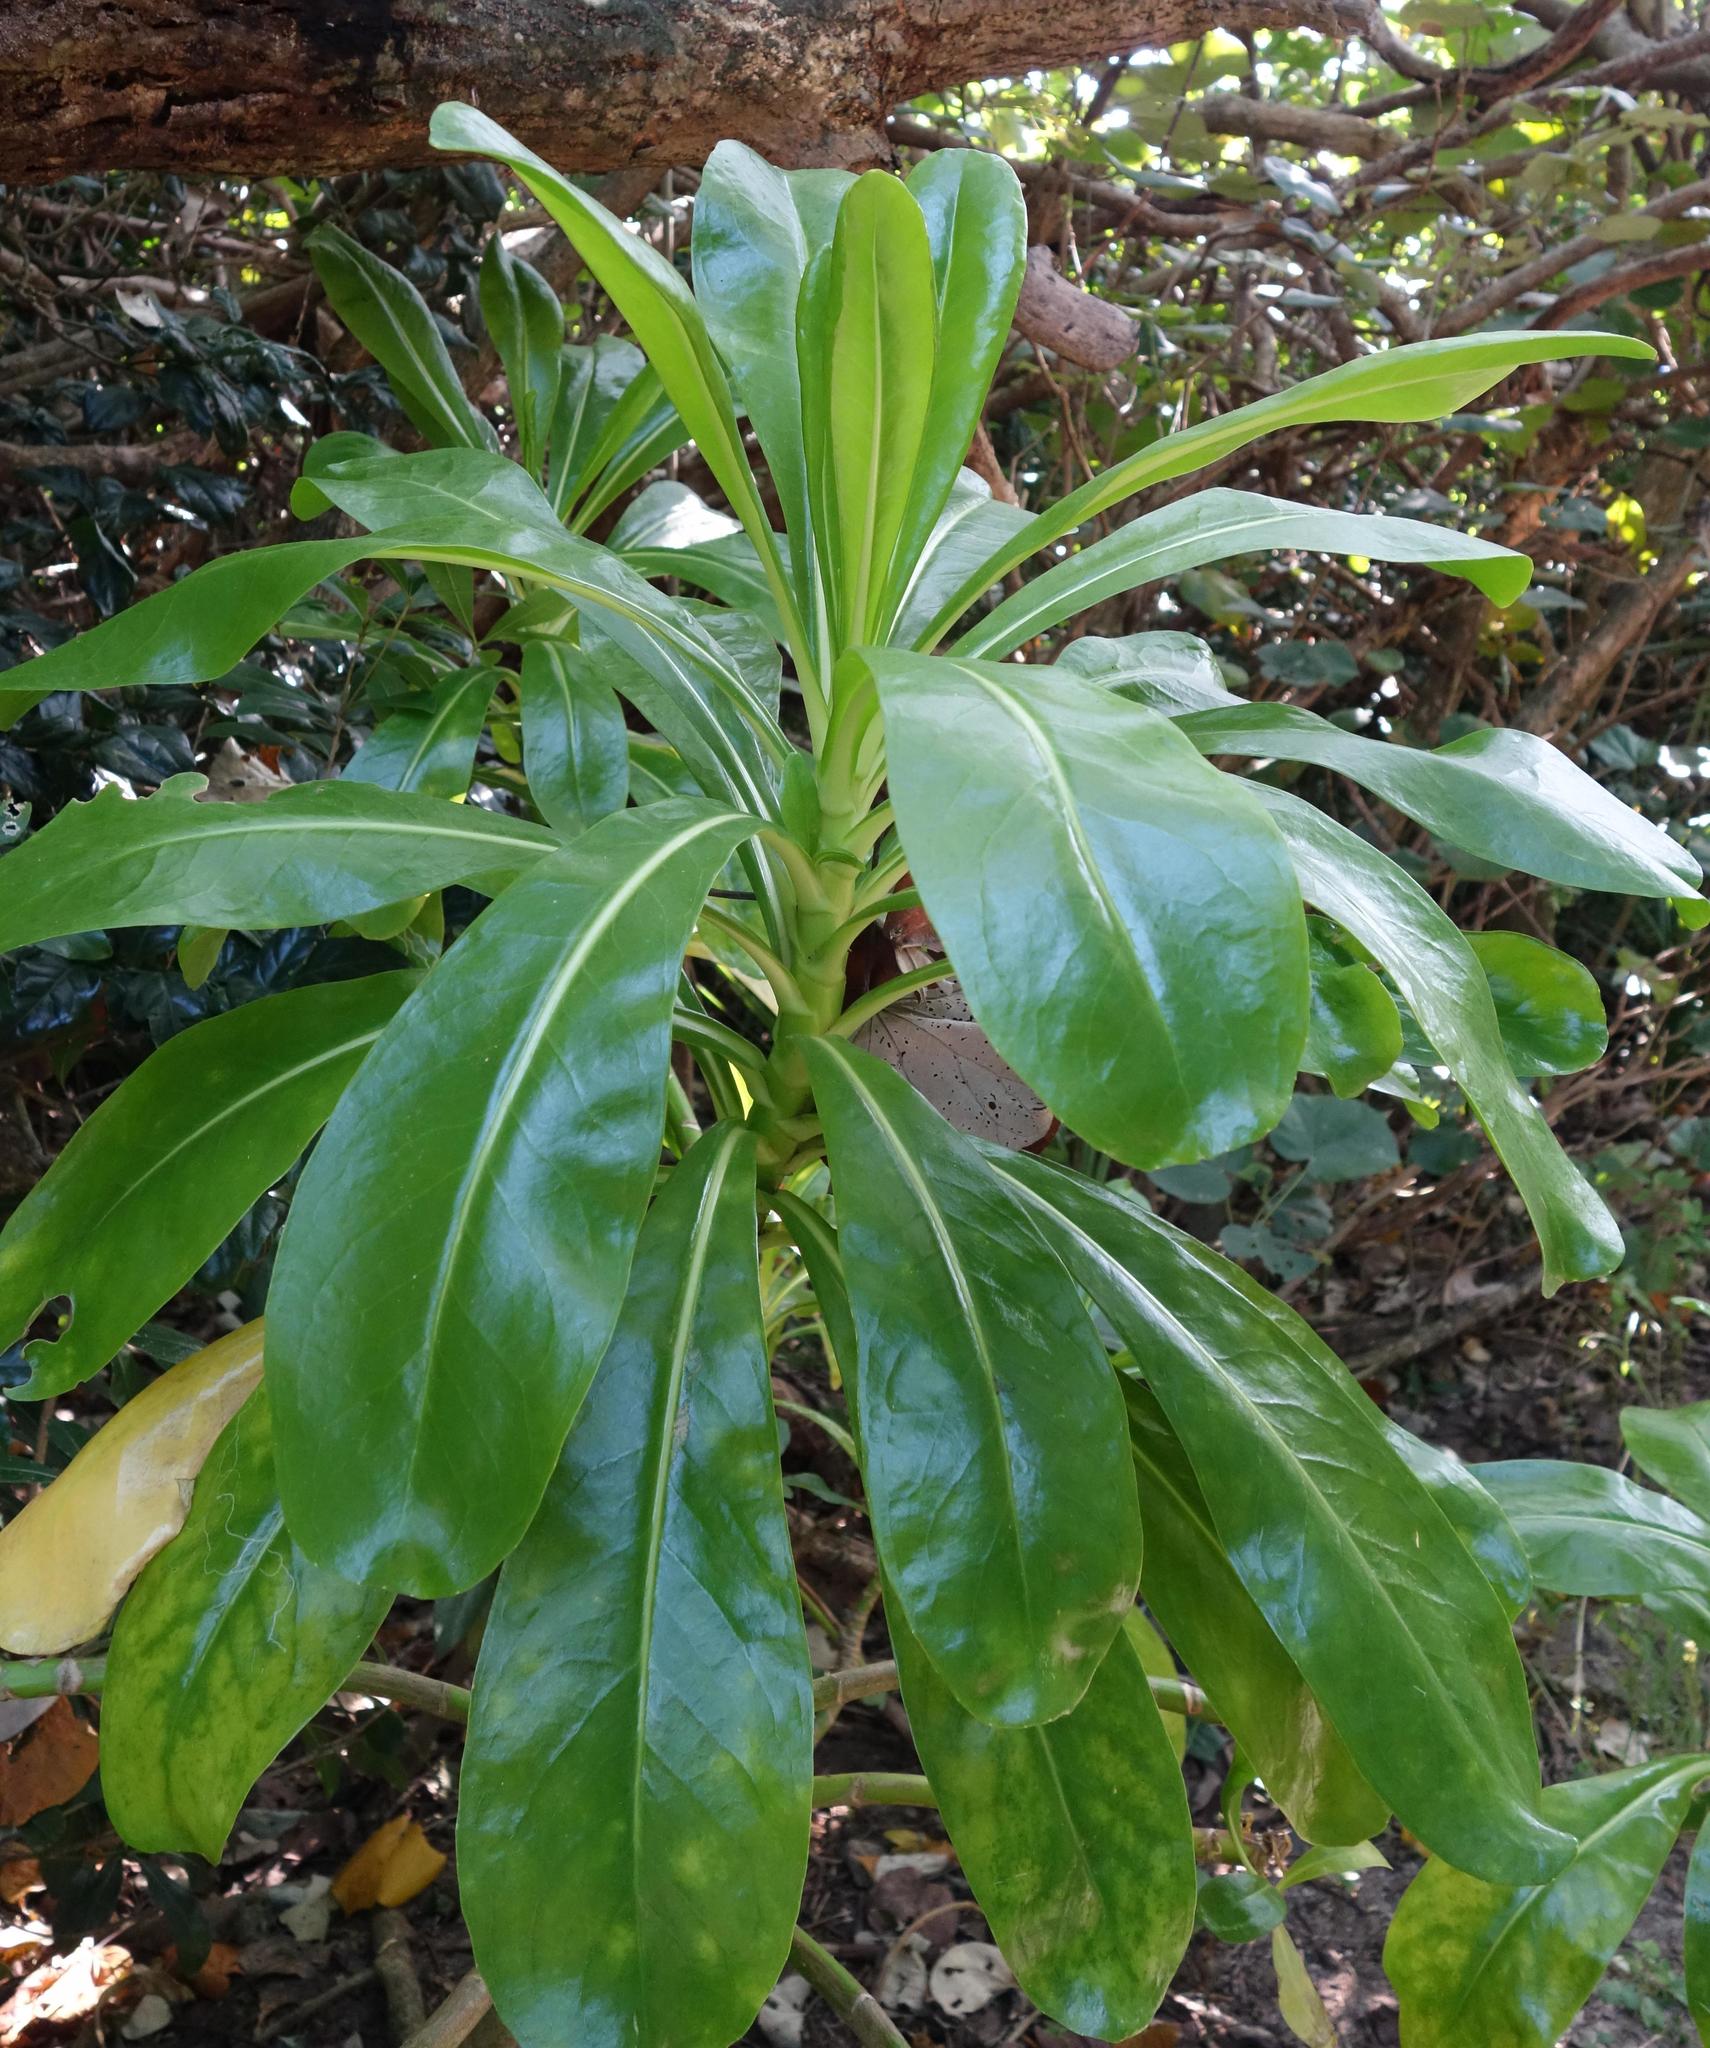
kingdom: Plantae
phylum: Tracheophyta
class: Magnoliopsida
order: Asterales
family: Goodeniaceae
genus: Scaevola
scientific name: Scaevola taccada
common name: Sea lettucetree
